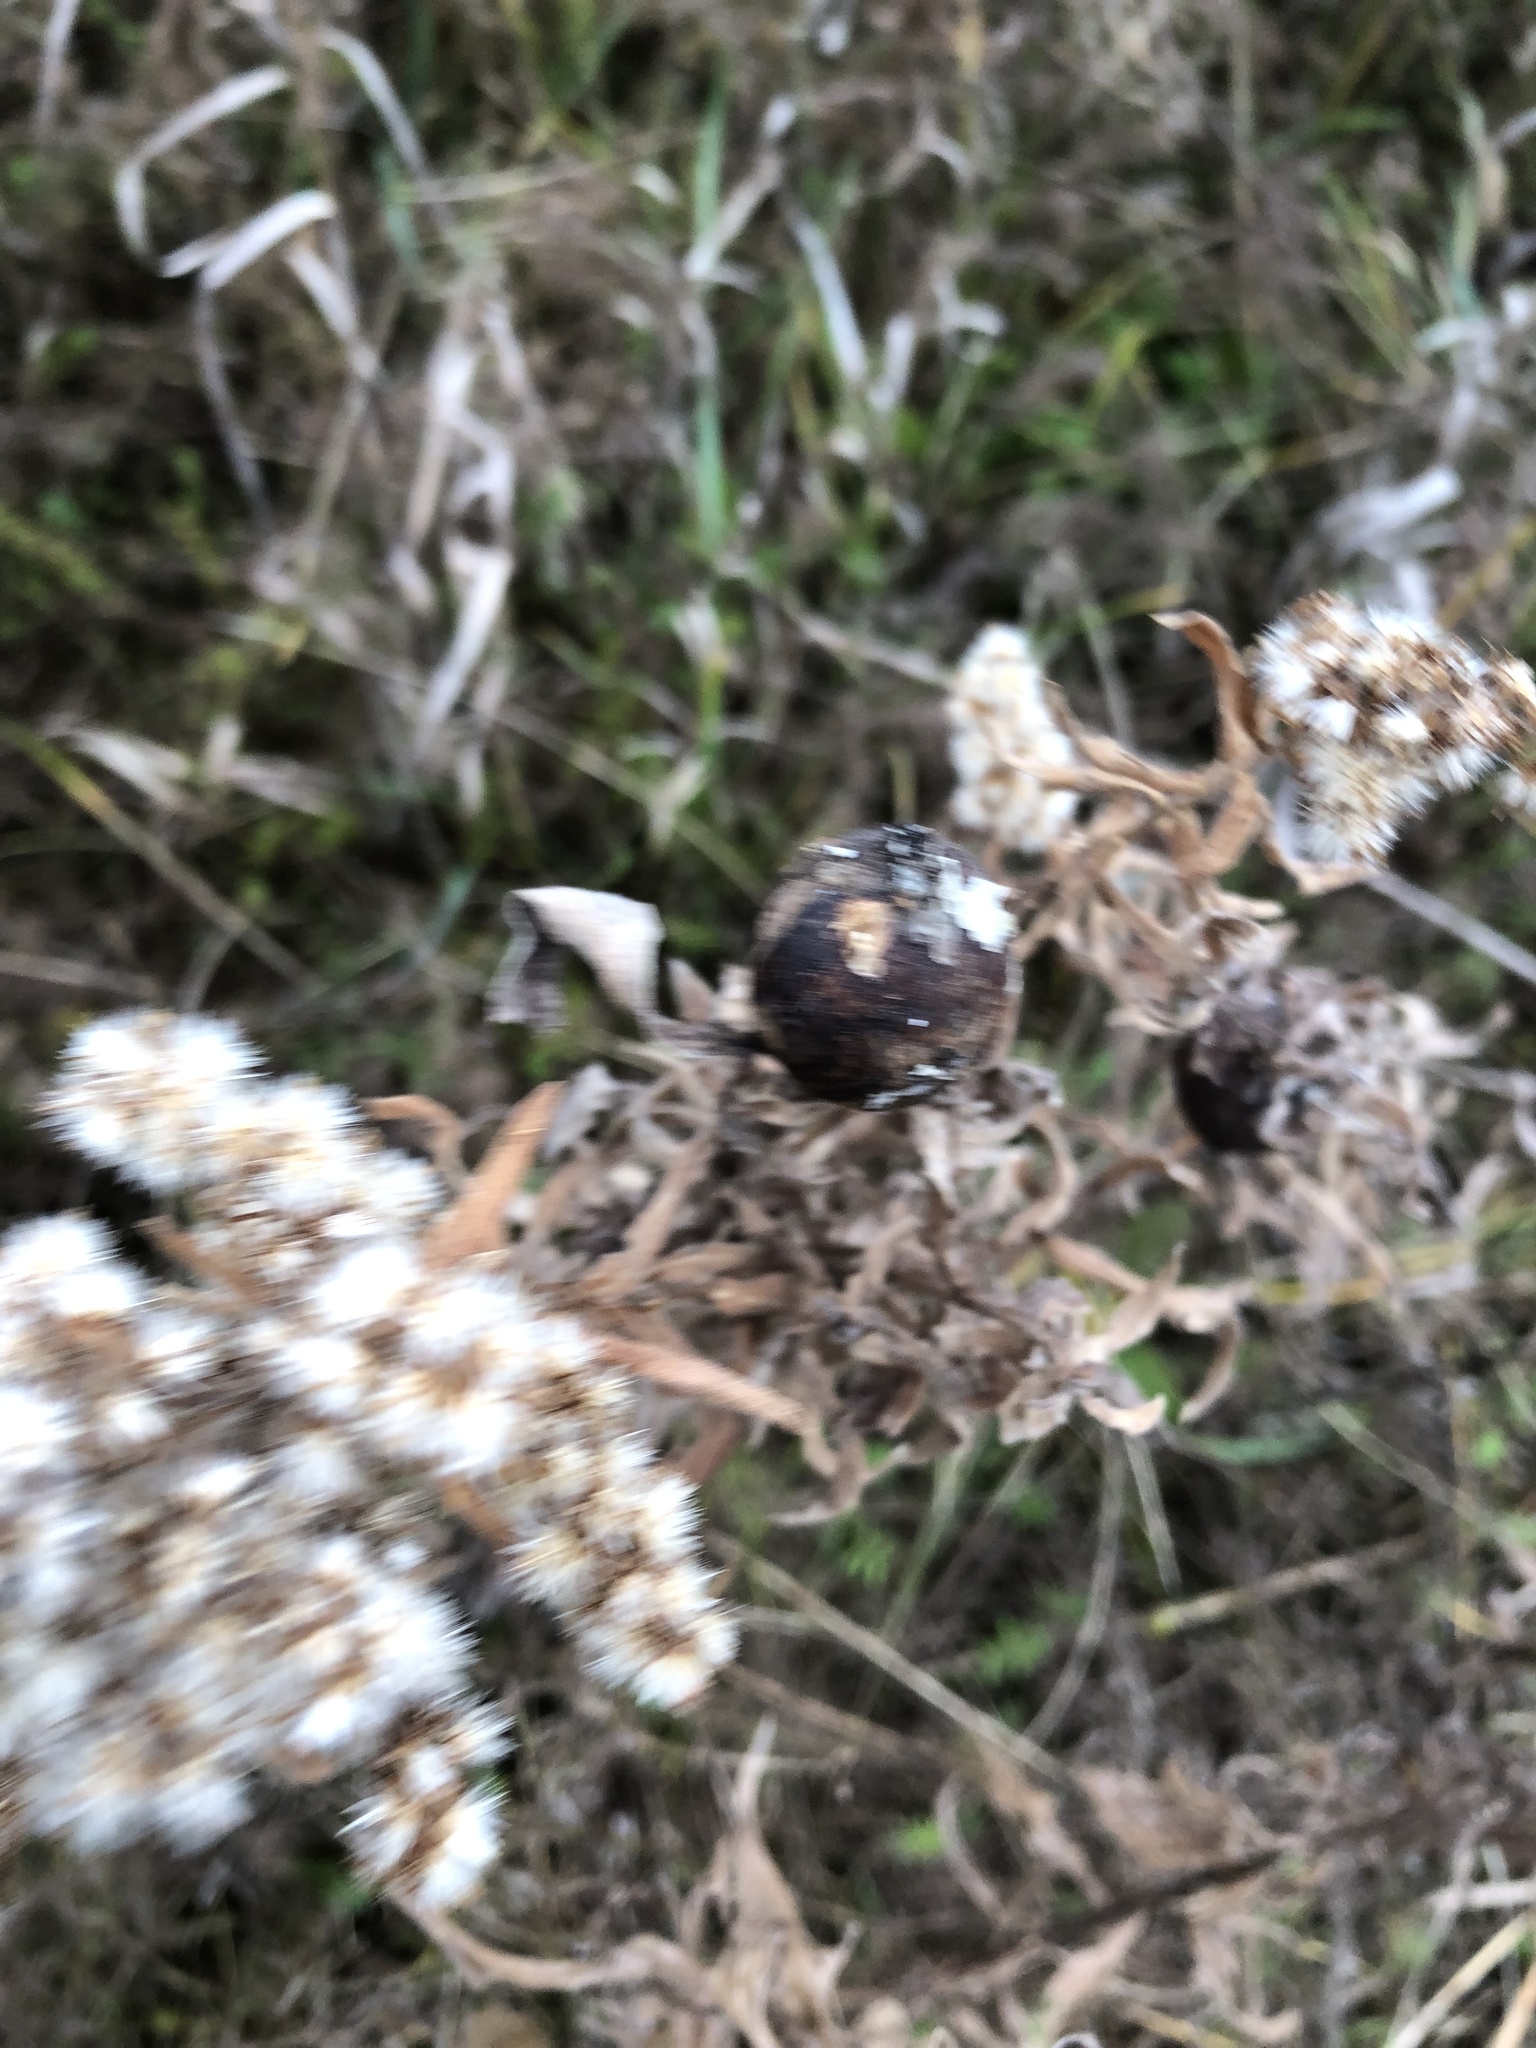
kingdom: Animalia
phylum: Arthropoda
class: Insecta
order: Diptera
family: Tephritidae
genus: Eurosta
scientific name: Eurosta solidaginis
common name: Goldenrod gall fly
